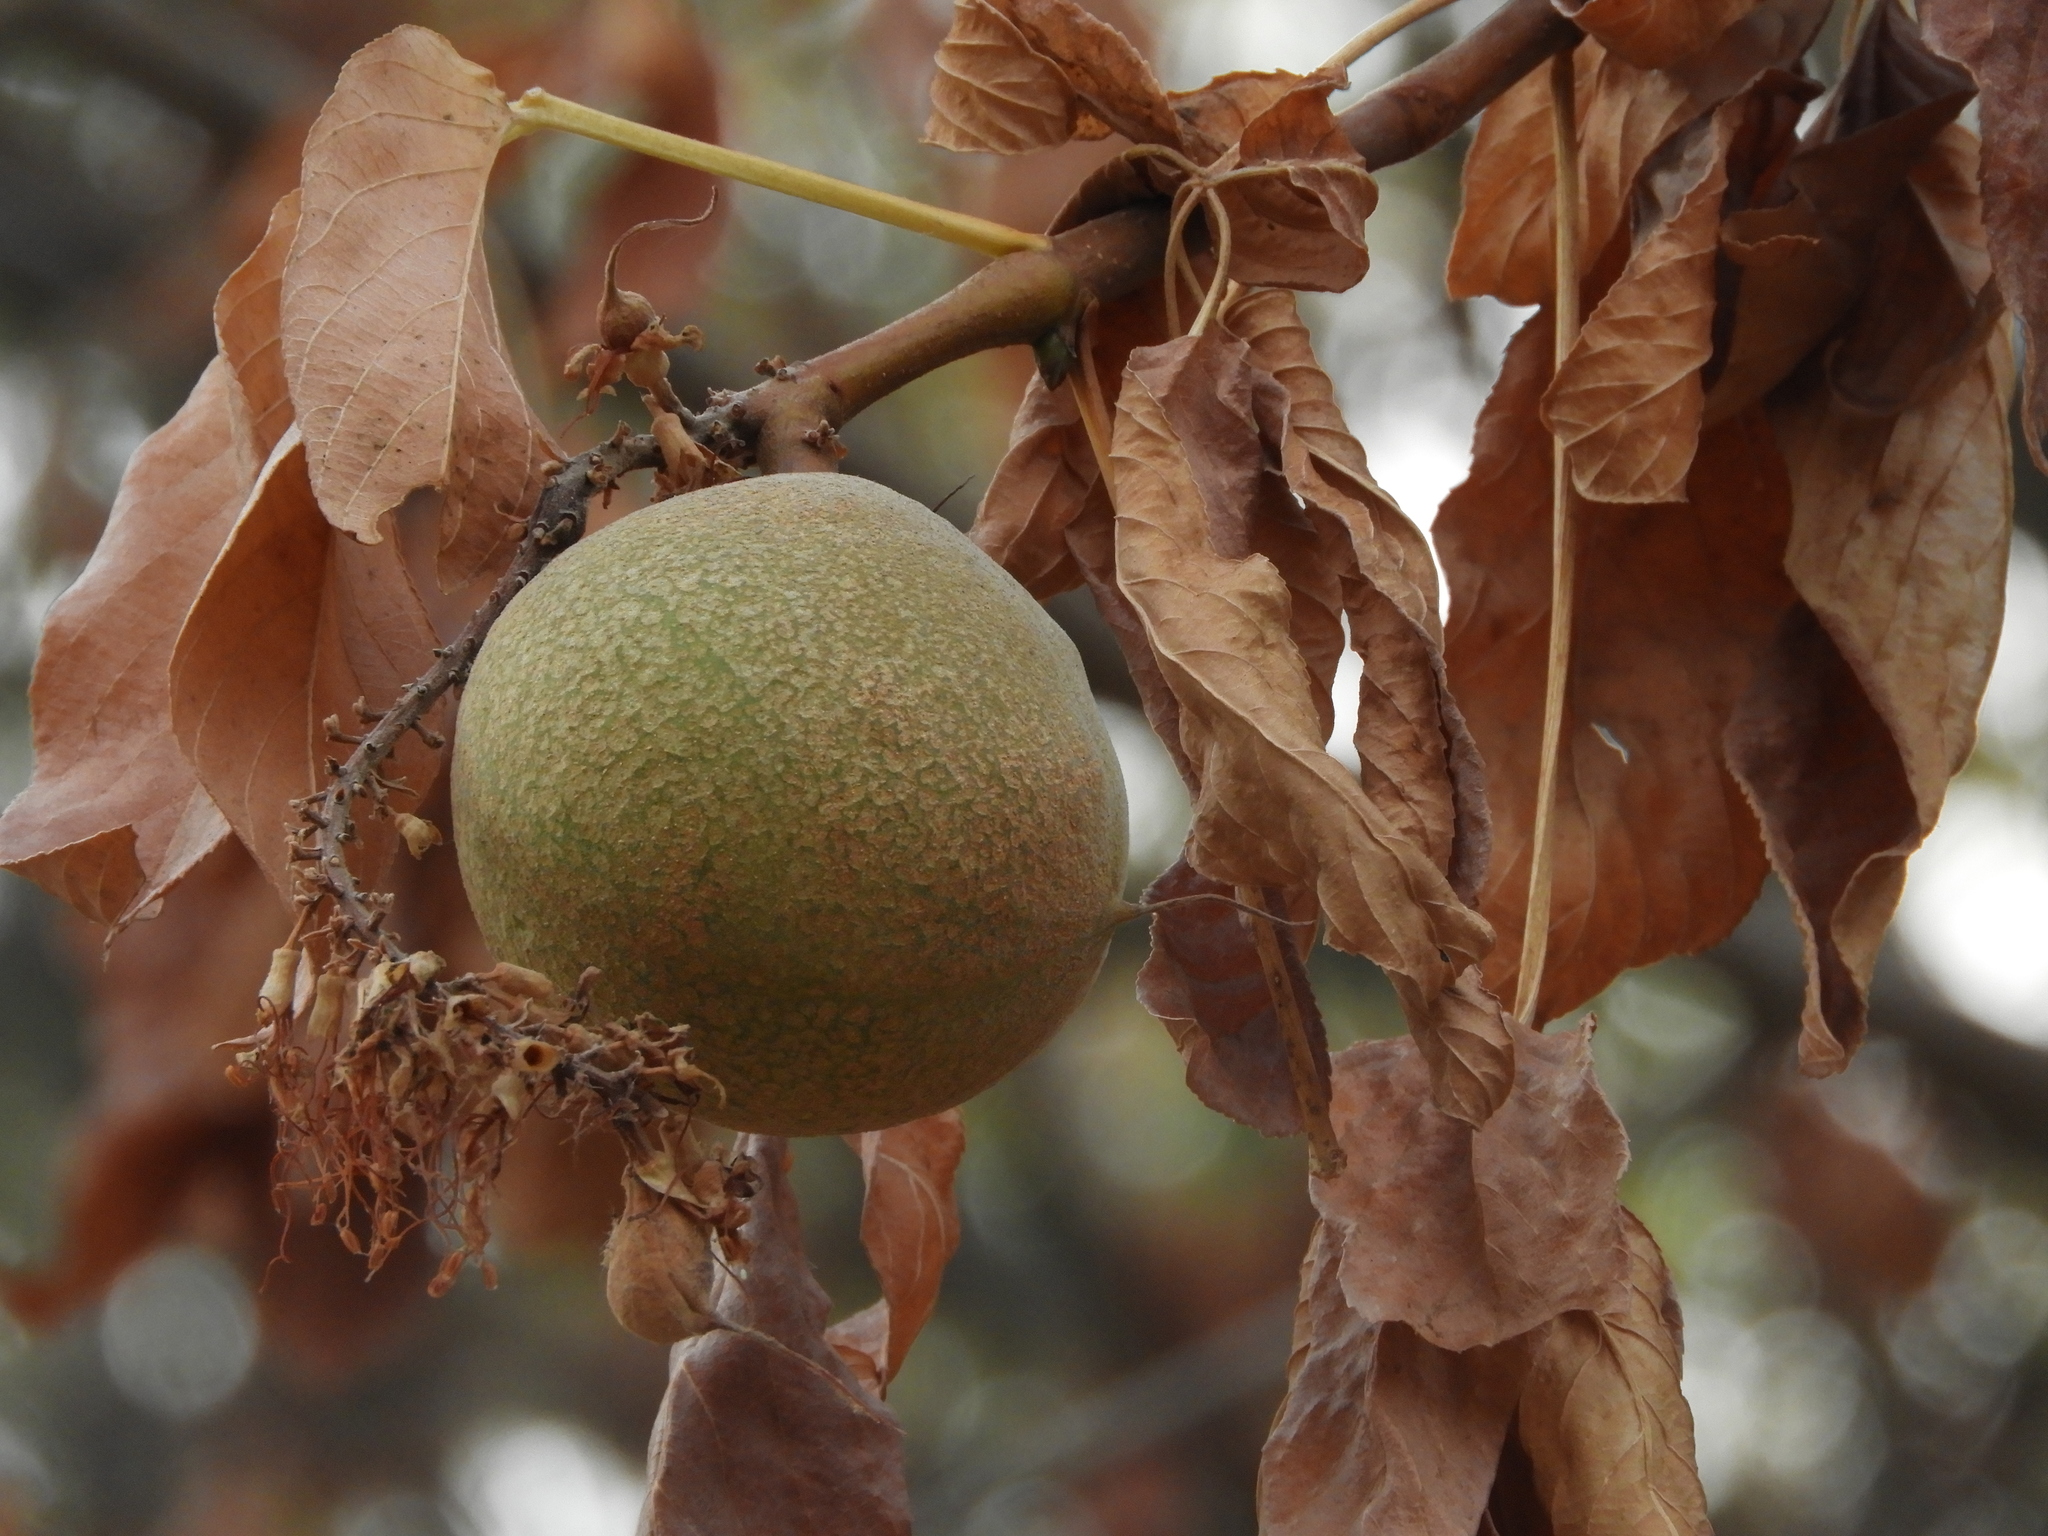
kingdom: Plantae
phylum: Tracheophyta
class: Magnoliopsida
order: Sapindales
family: Sapindaceae
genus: Aesculus
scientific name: Aesculus californica
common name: California buckeye
